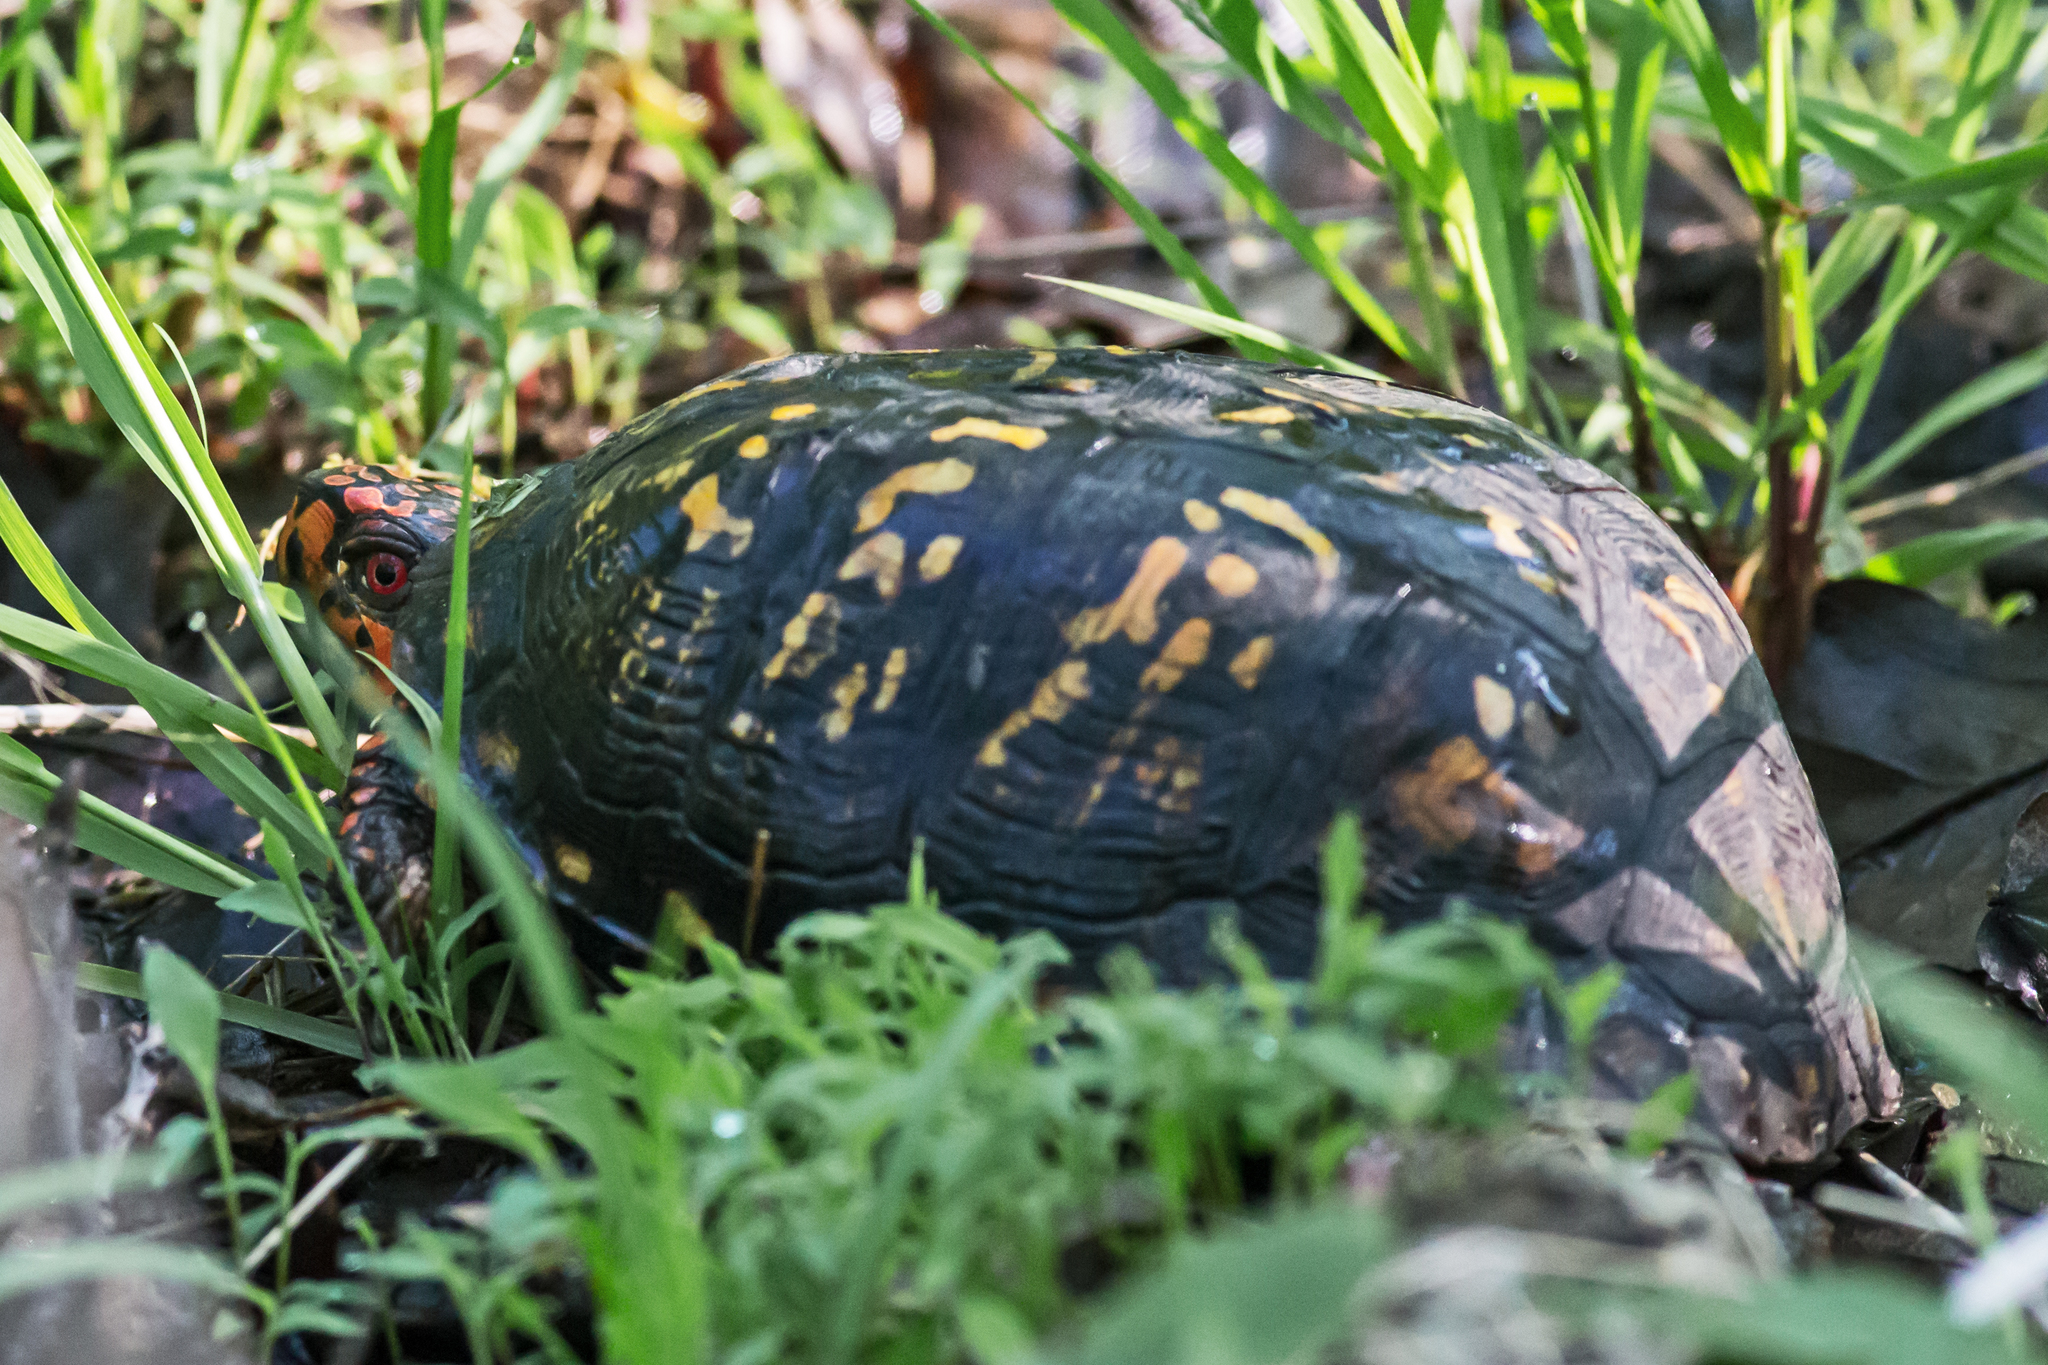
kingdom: Animalia
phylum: Chordata
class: Testudines
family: Emydidae
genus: Terrapene
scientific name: Terrapene carolina
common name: Common box turtle
